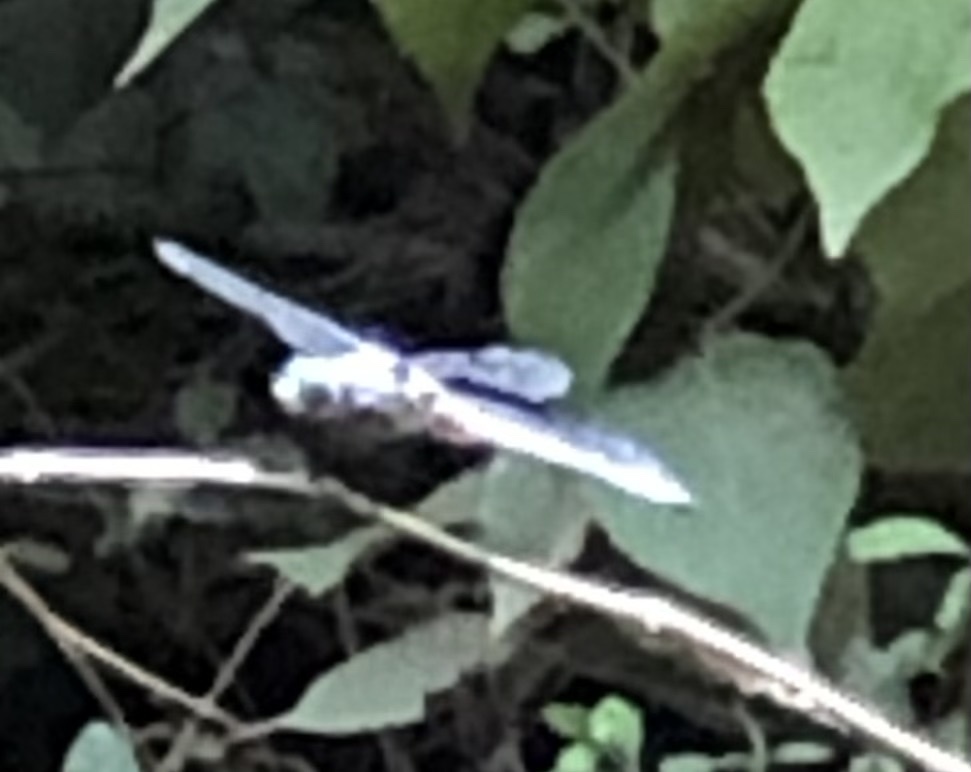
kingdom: Animalia
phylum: Arthropoda
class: Insecta
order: Odonata
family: Libellulidae
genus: Libellula
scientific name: Libellula vibrans
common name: Great blue skimmer
